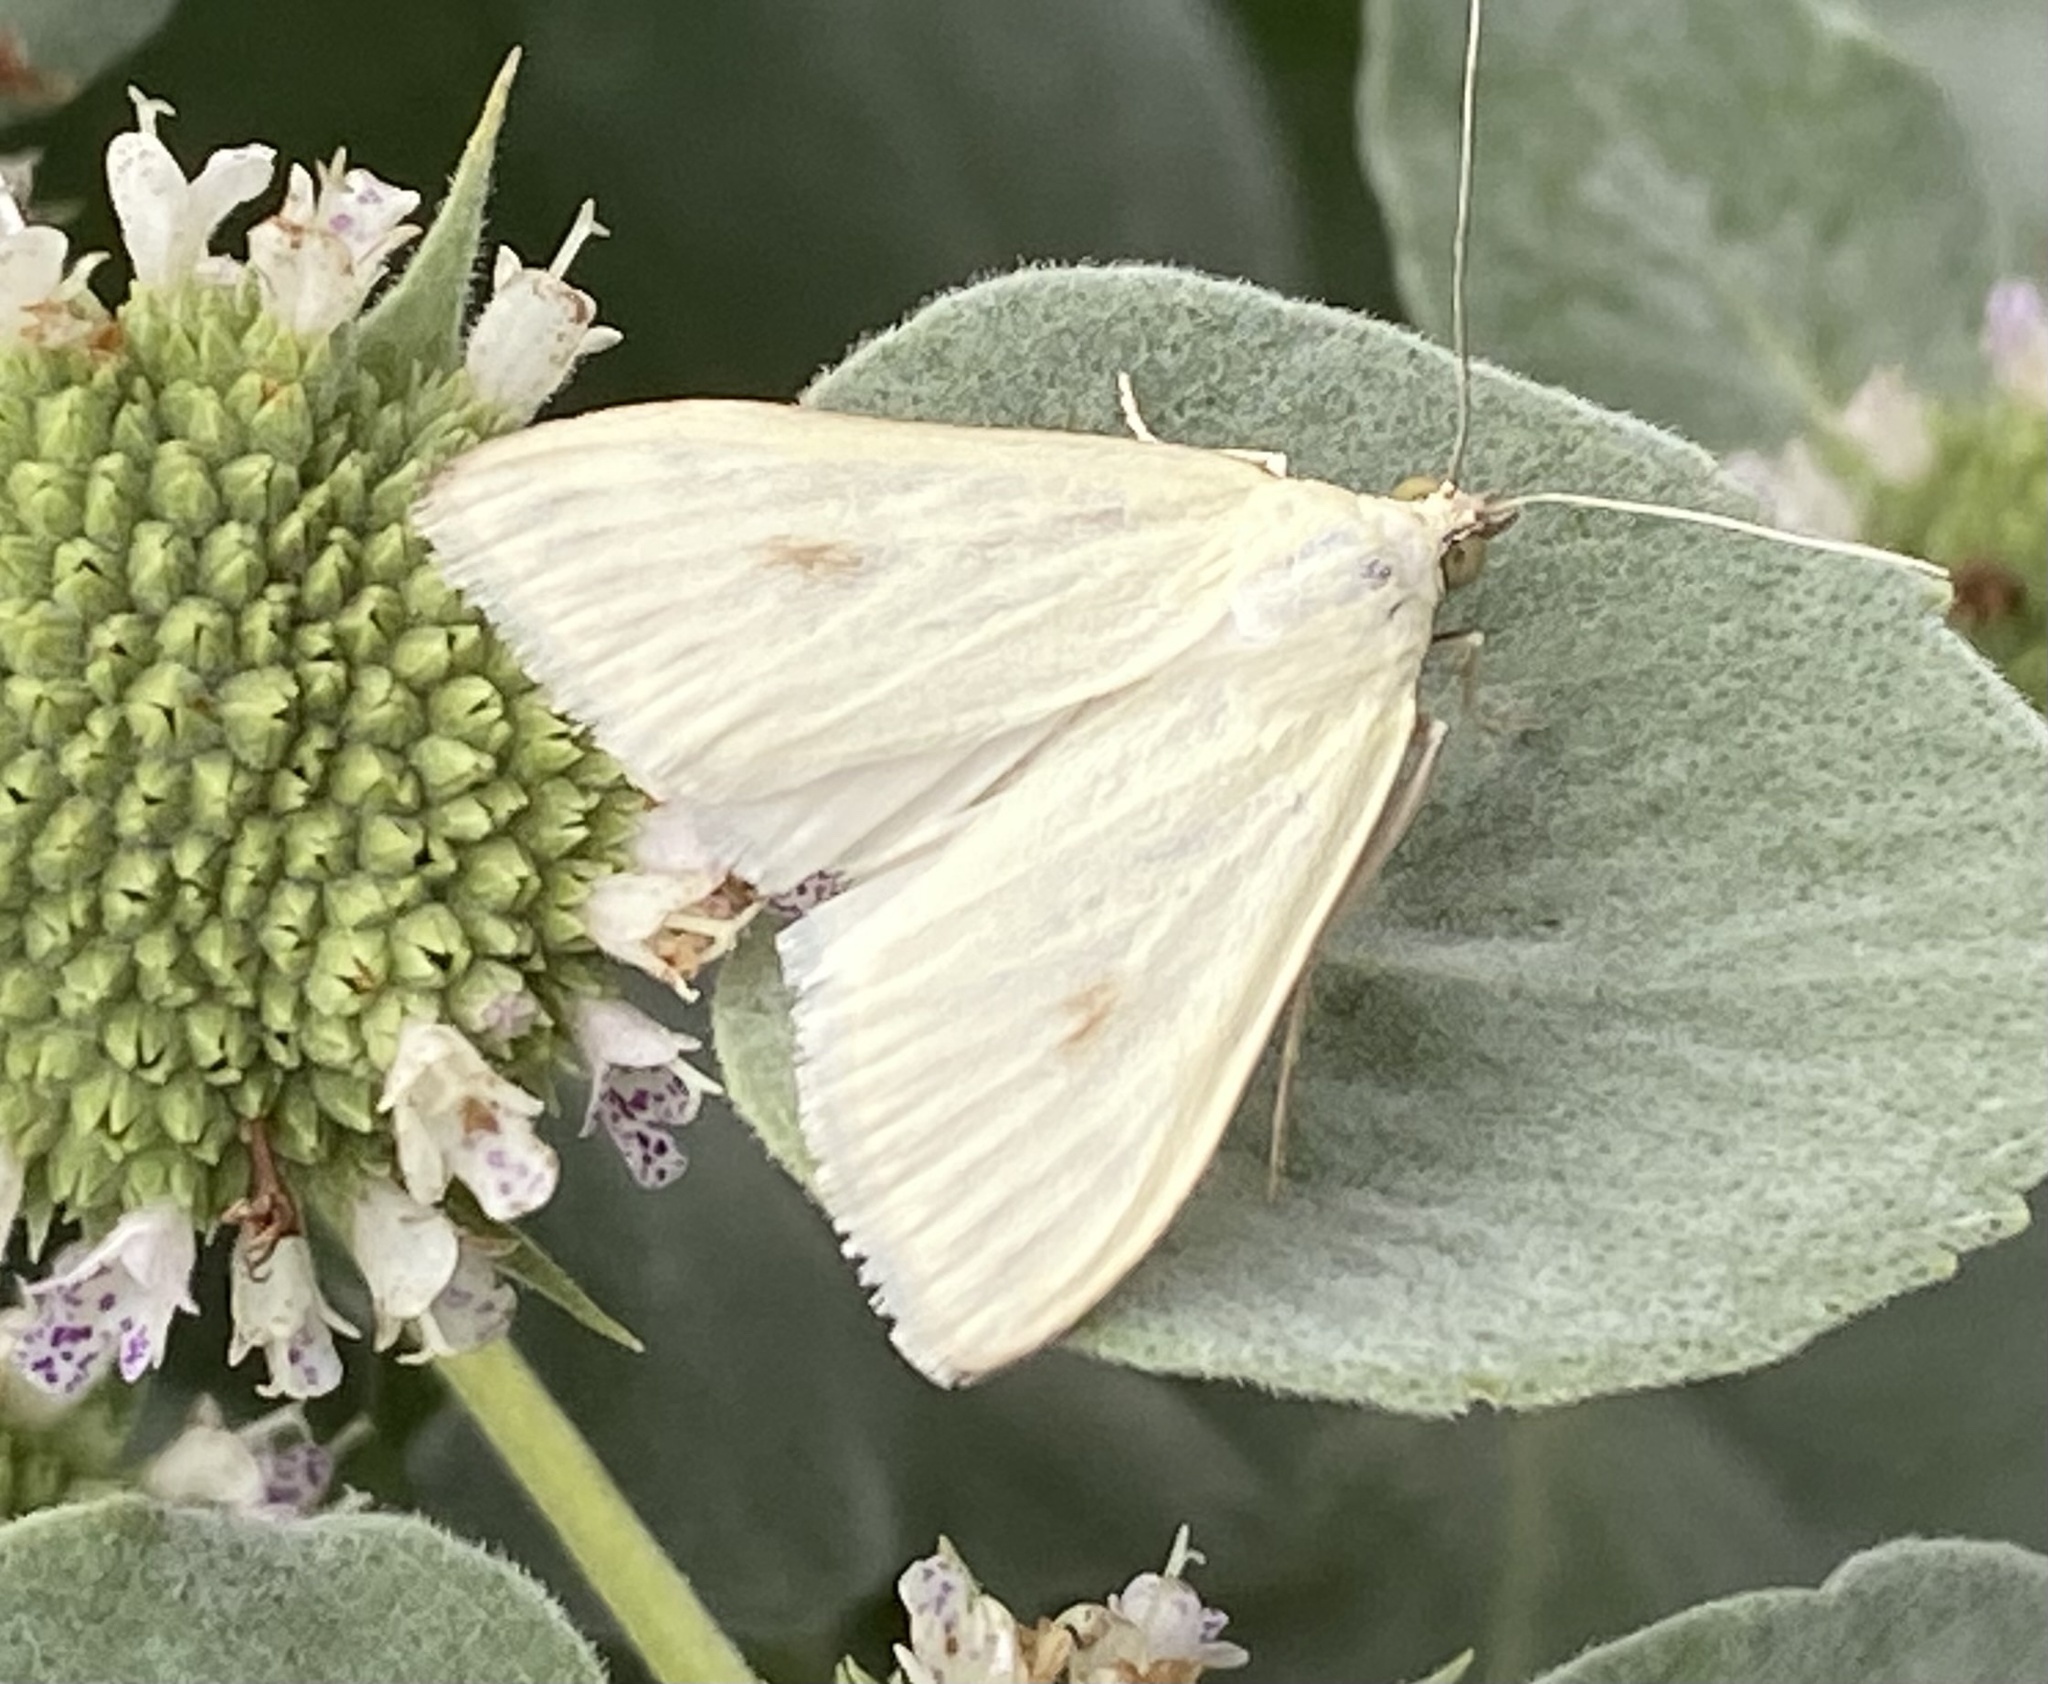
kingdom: Animalia
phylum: Arthropoda
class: Insecta
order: Lepidoptera
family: Crambidae
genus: Sitochroa
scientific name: Sitochroa palealis
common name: Greenish-yellow sitochroa moth
